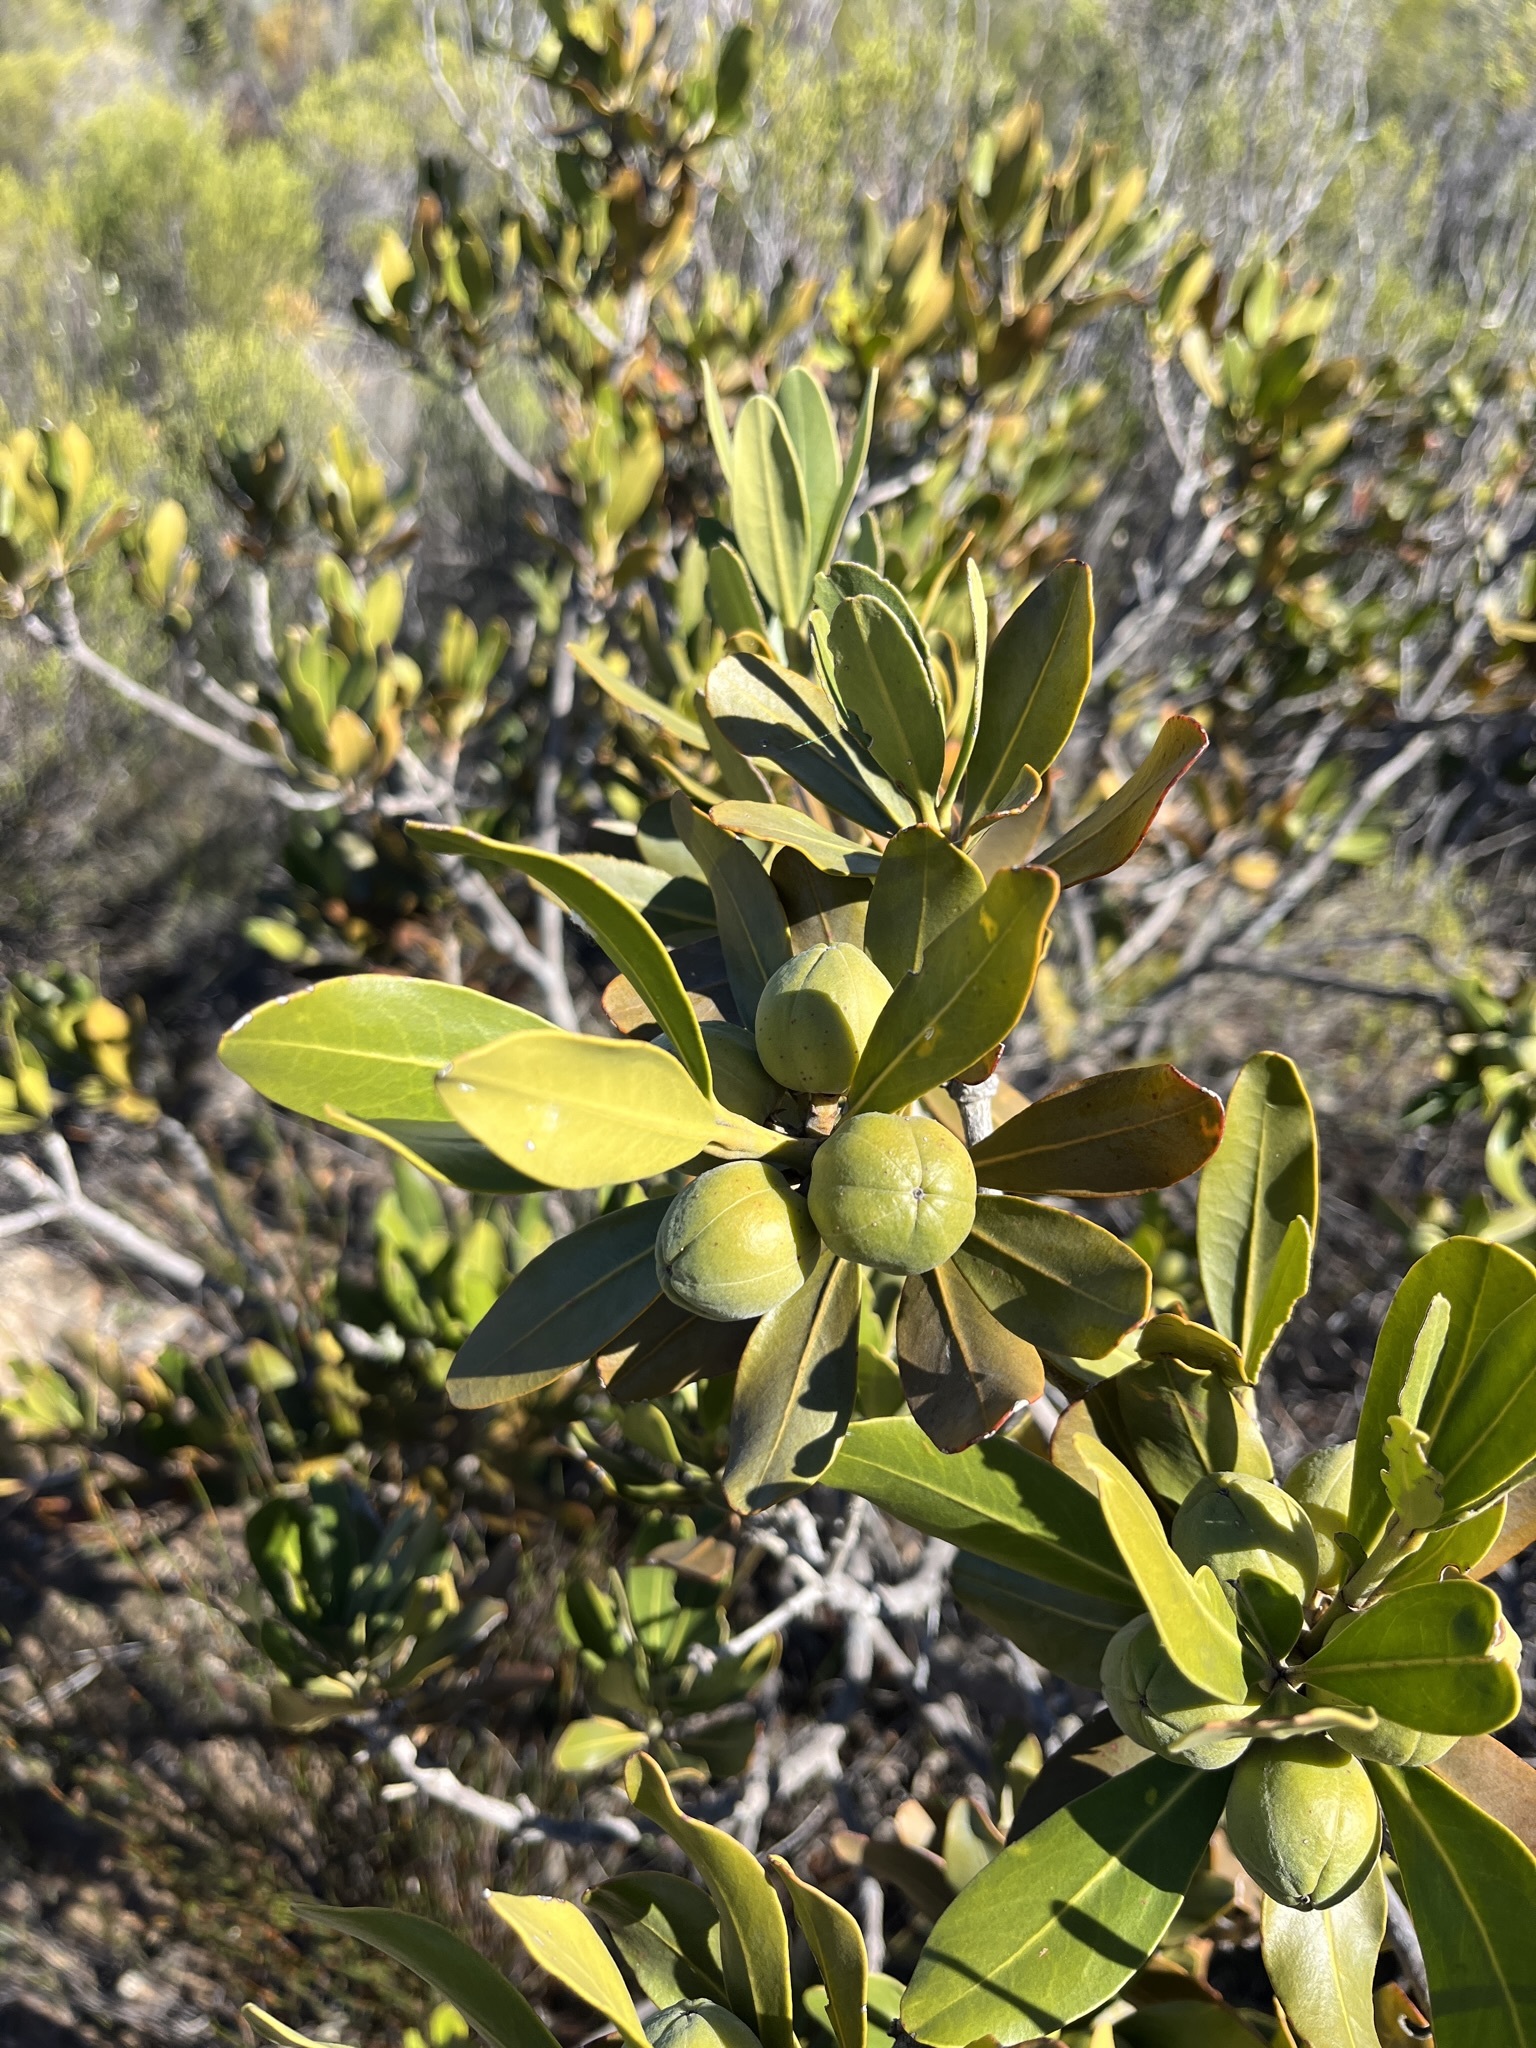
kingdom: Plantae
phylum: Tracheophyta
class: Magnoliopsida
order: Malpighiales
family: Picrodendraceae
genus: Hyaenanche
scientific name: Hyaenanche globosa
